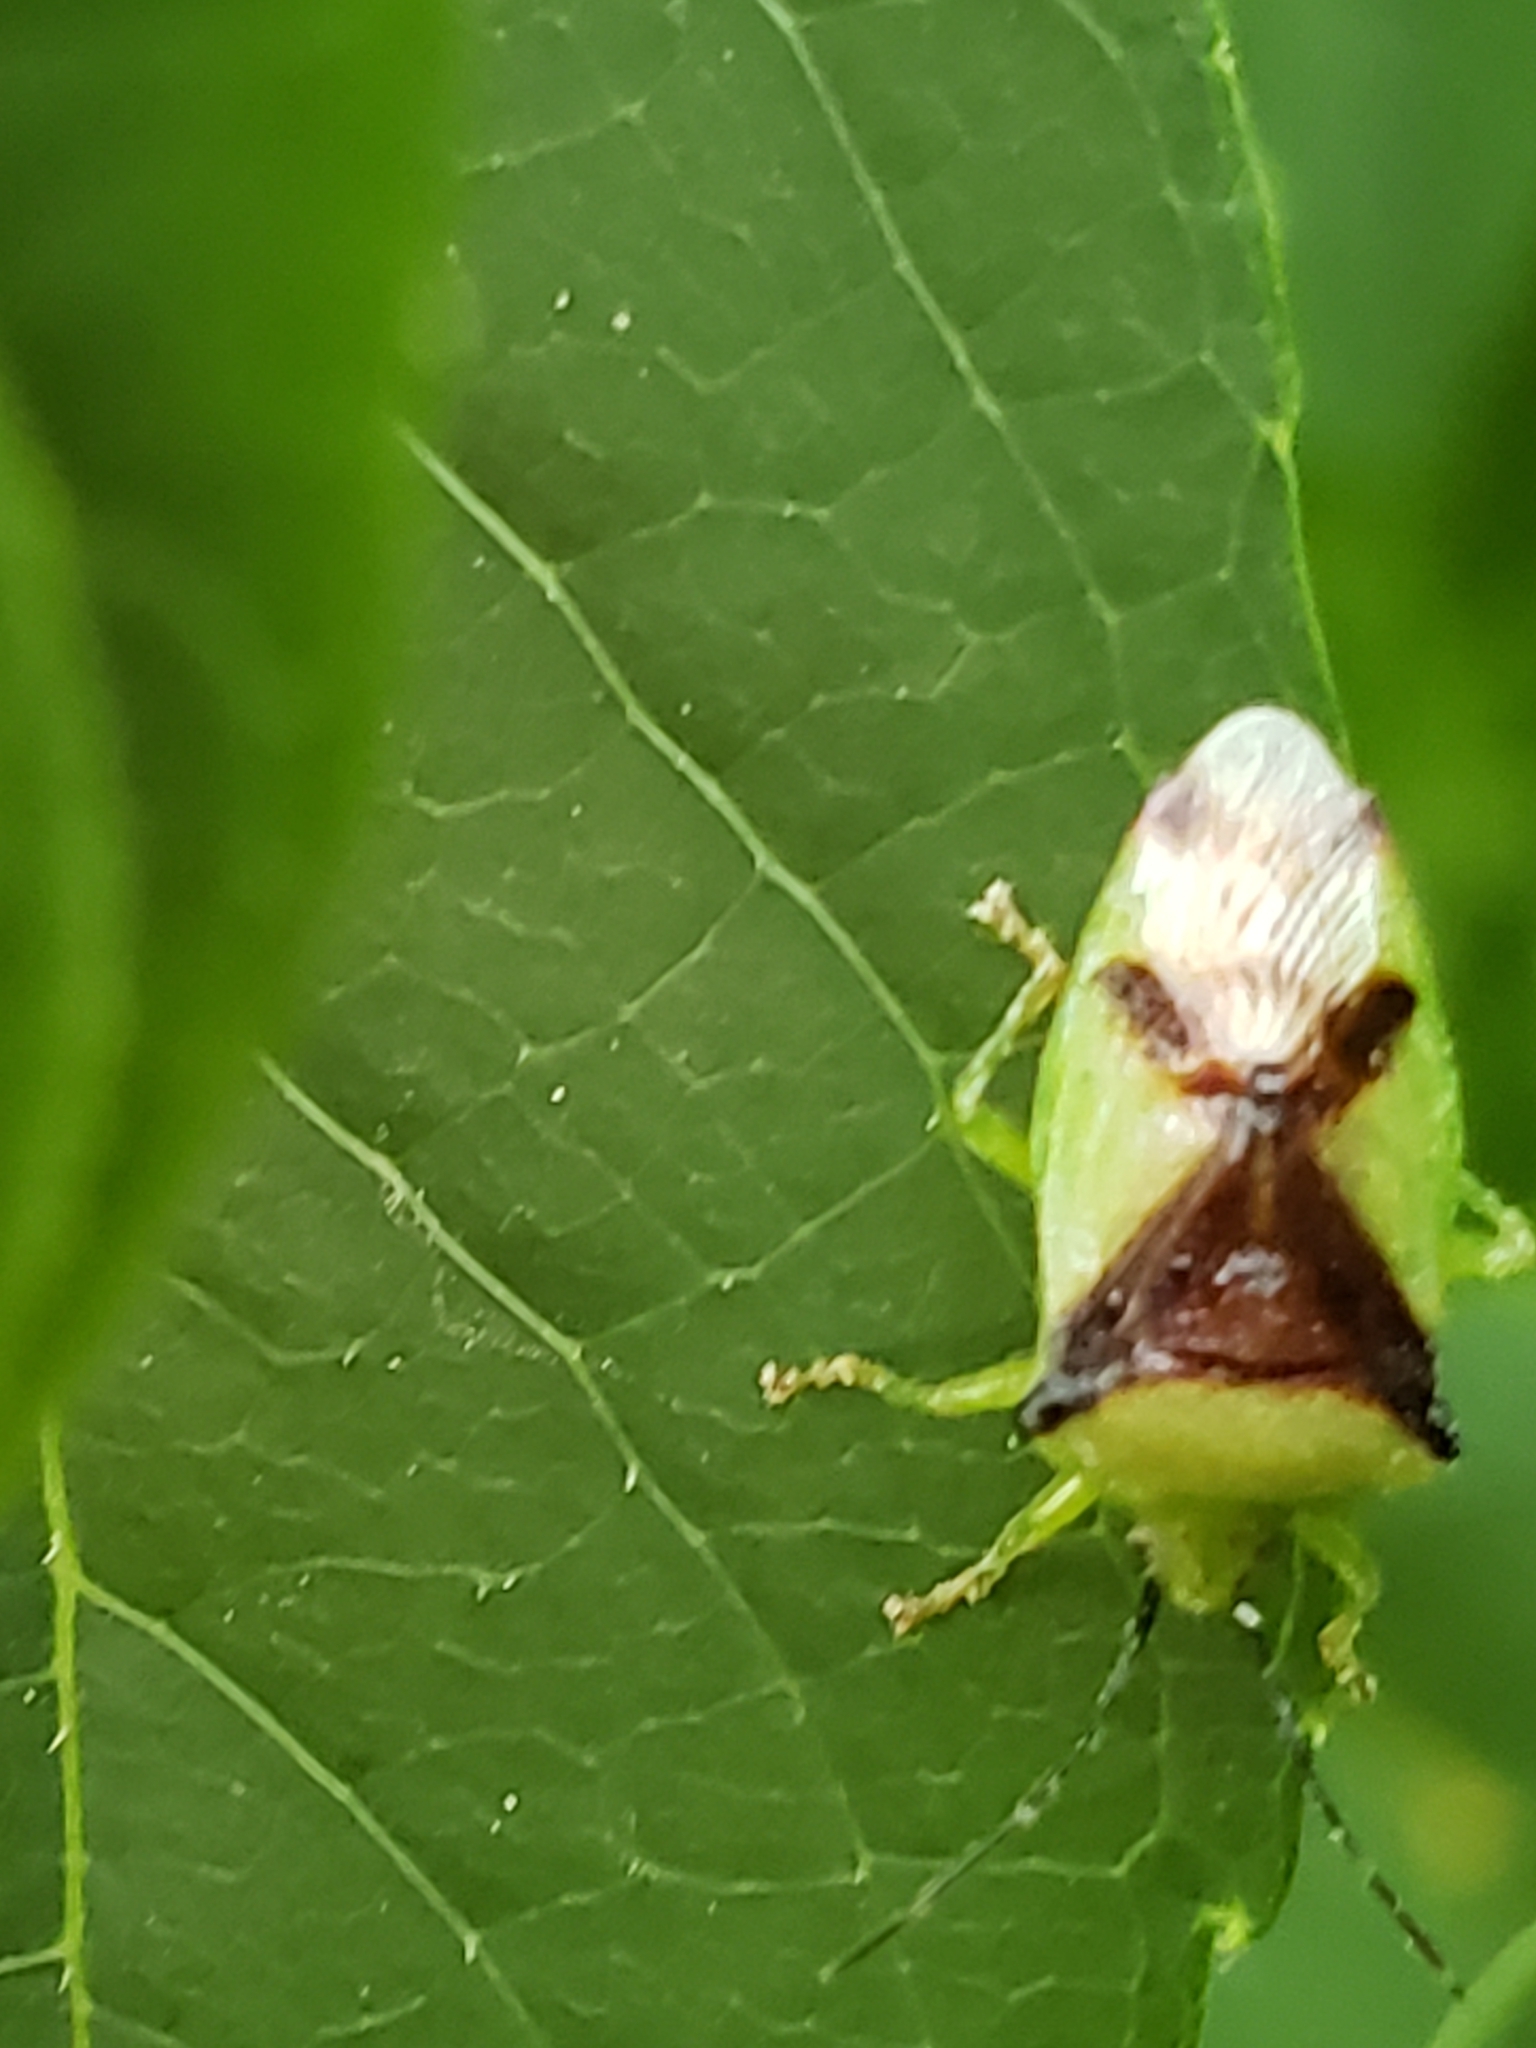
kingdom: Animalia
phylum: Arthropoda
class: Insecta
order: Hemiptera
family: Acanthosomatidae
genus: Elasmostethus
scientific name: Elasmostethus atricornis
